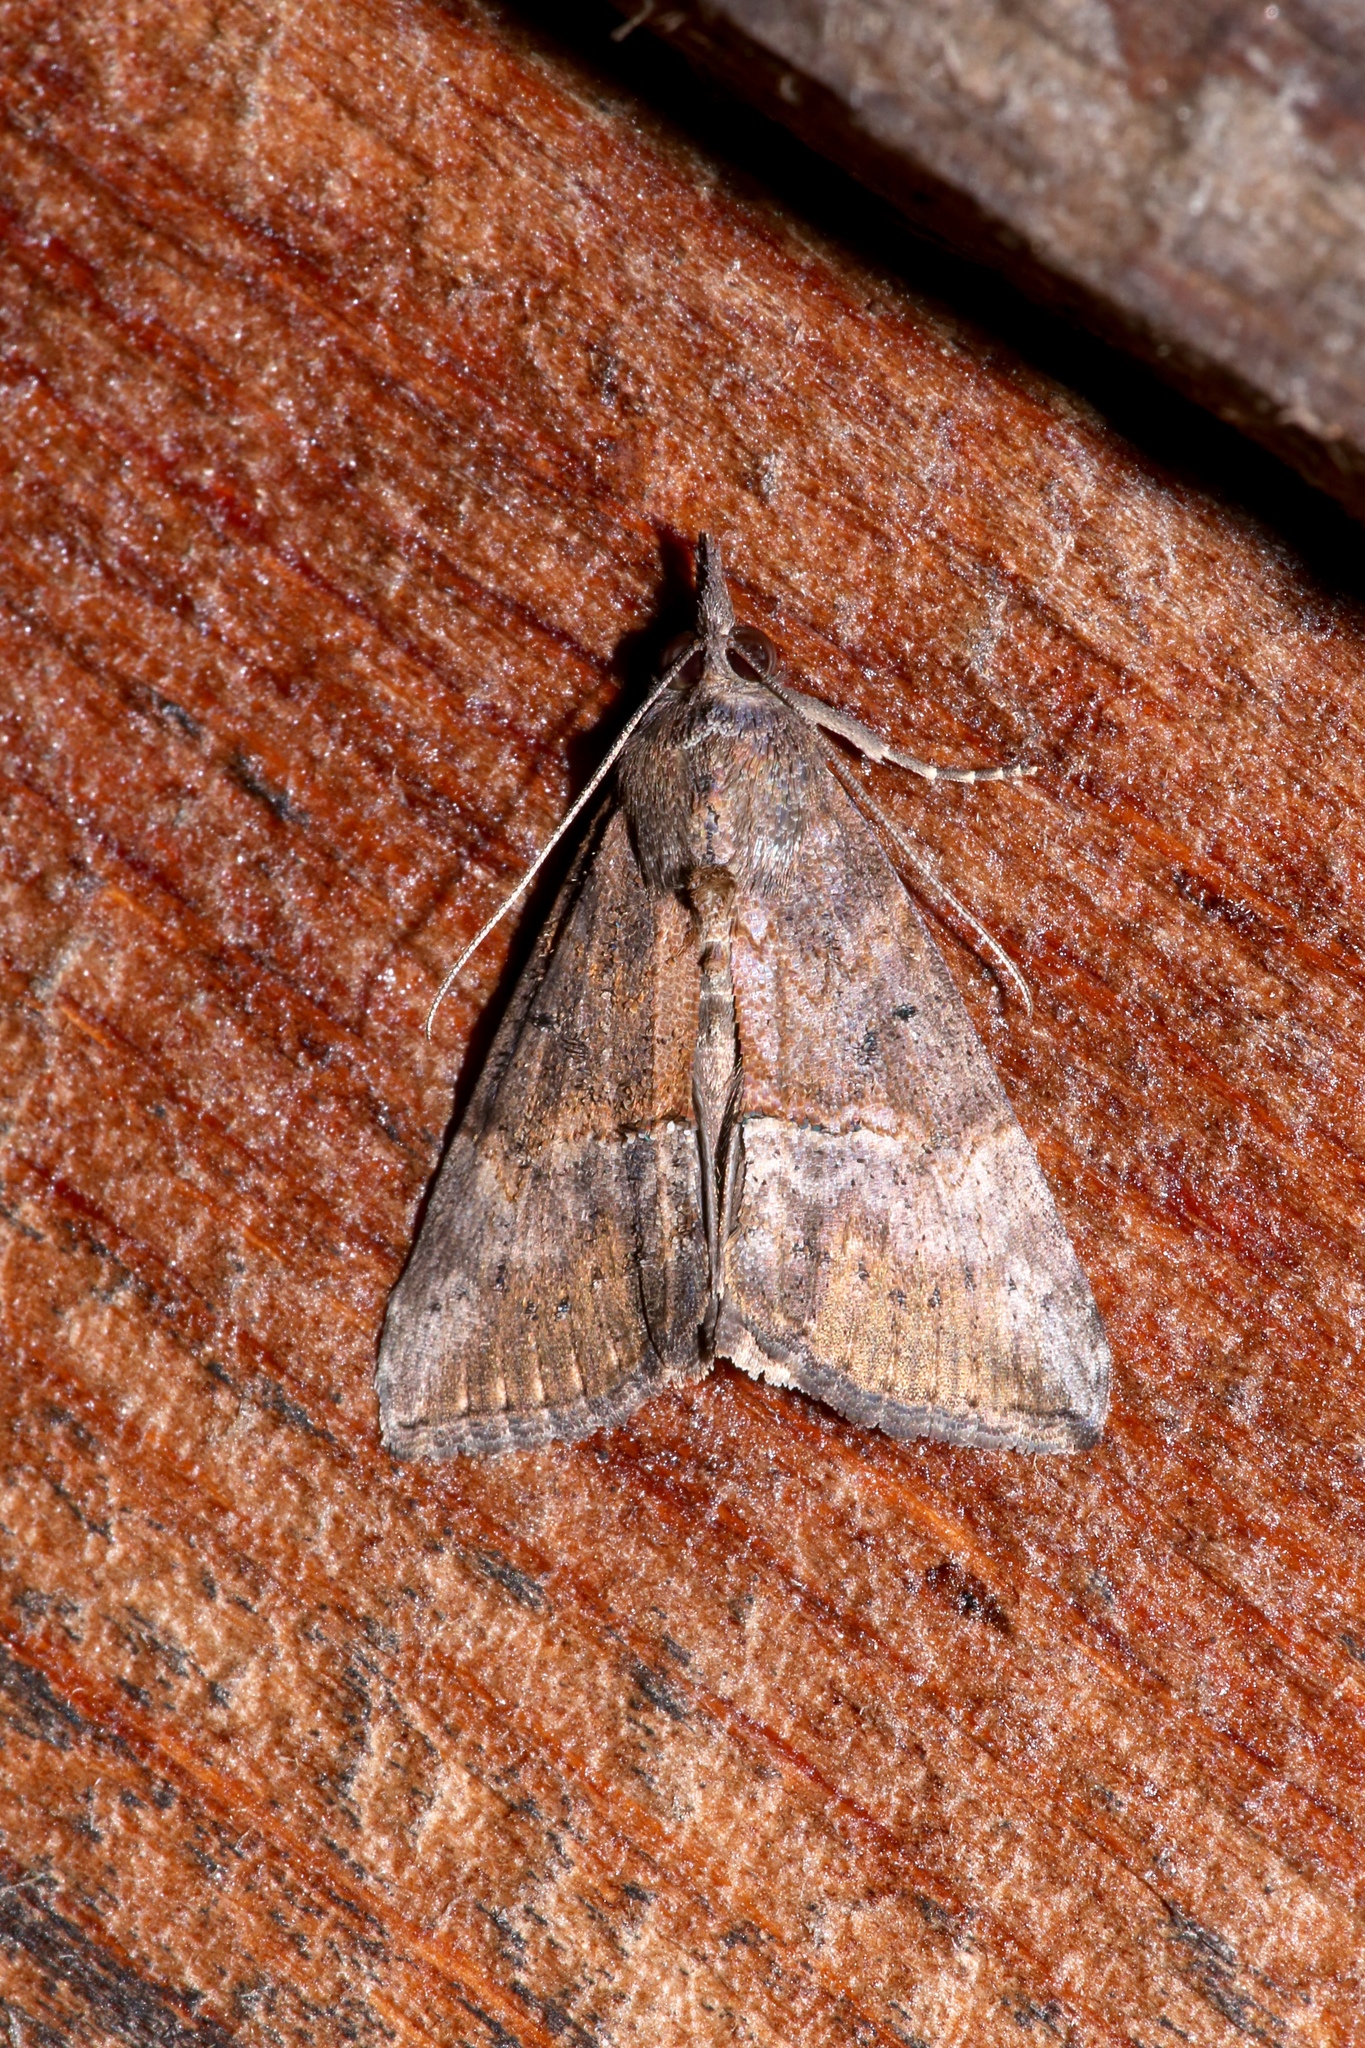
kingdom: Animalia
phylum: Arthropoda
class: Insecta
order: Lepidoptera
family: Erebidae
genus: Hypena
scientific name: Hypena scabra
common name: Green cloverworm
